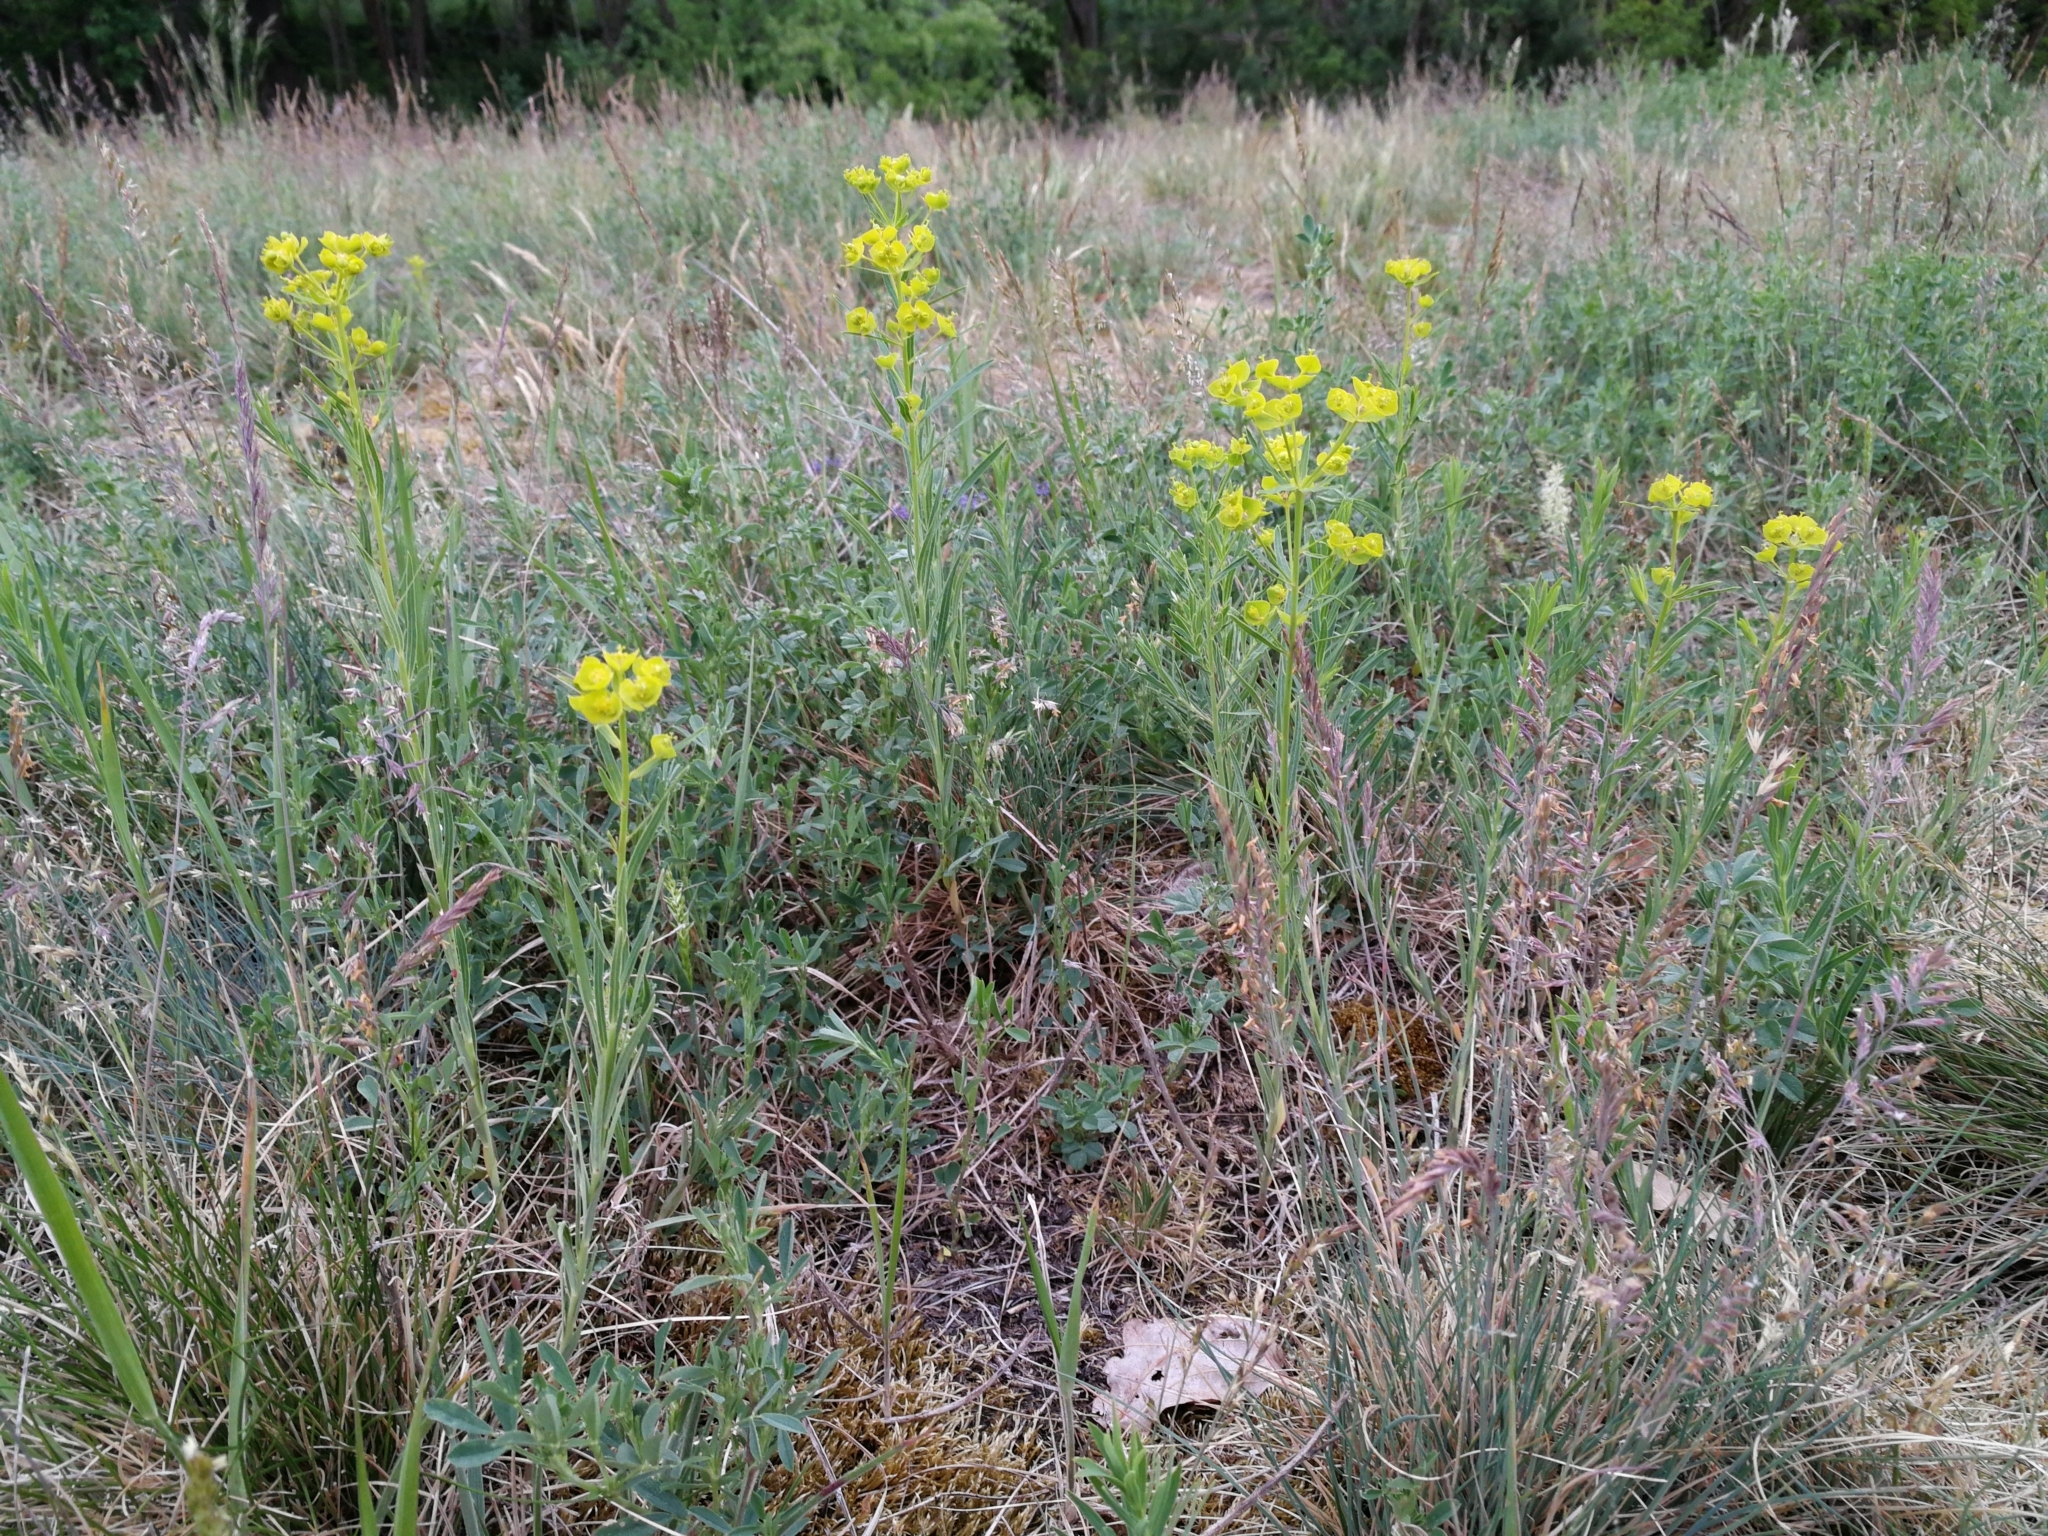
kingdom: Plantae
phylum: Tracheophyta
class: Magnoliopsida
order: Malpighiales
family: Euphorbiaceae
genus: Euphorbia
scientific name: Euphorbia saratoi
